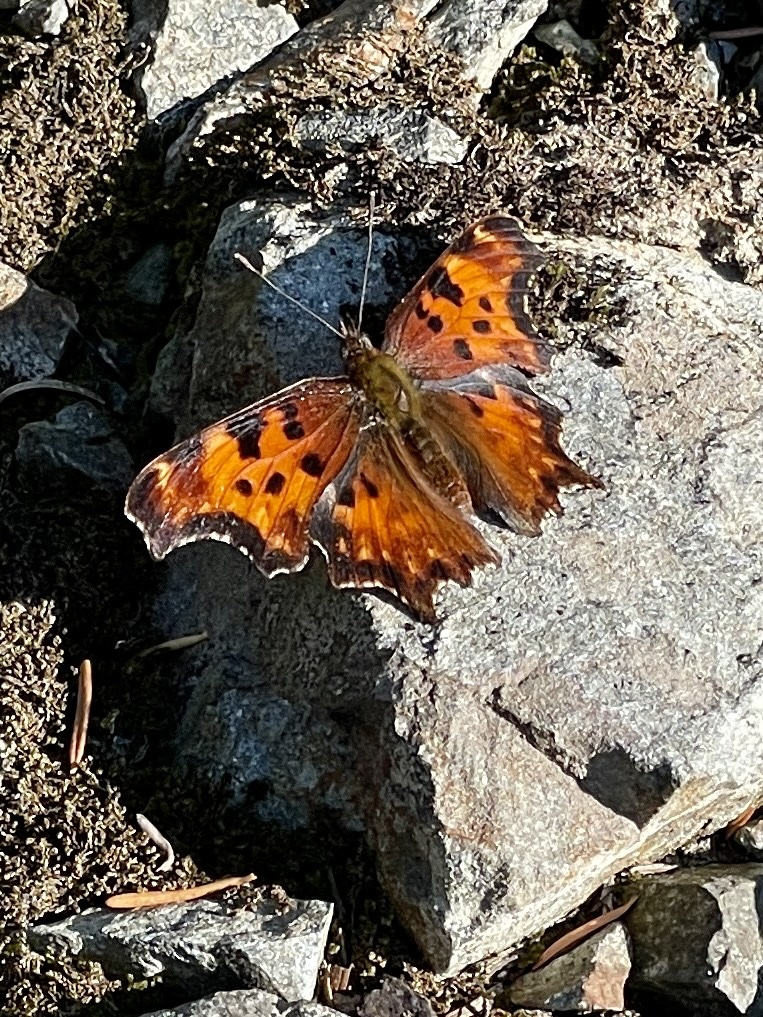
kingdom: Animalia
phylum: Arthropoda
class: Insecta
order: Lepidoptera
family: Nymphalidae
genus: Polygonia
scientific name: Polygonia gracilis
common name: Hoary comma
